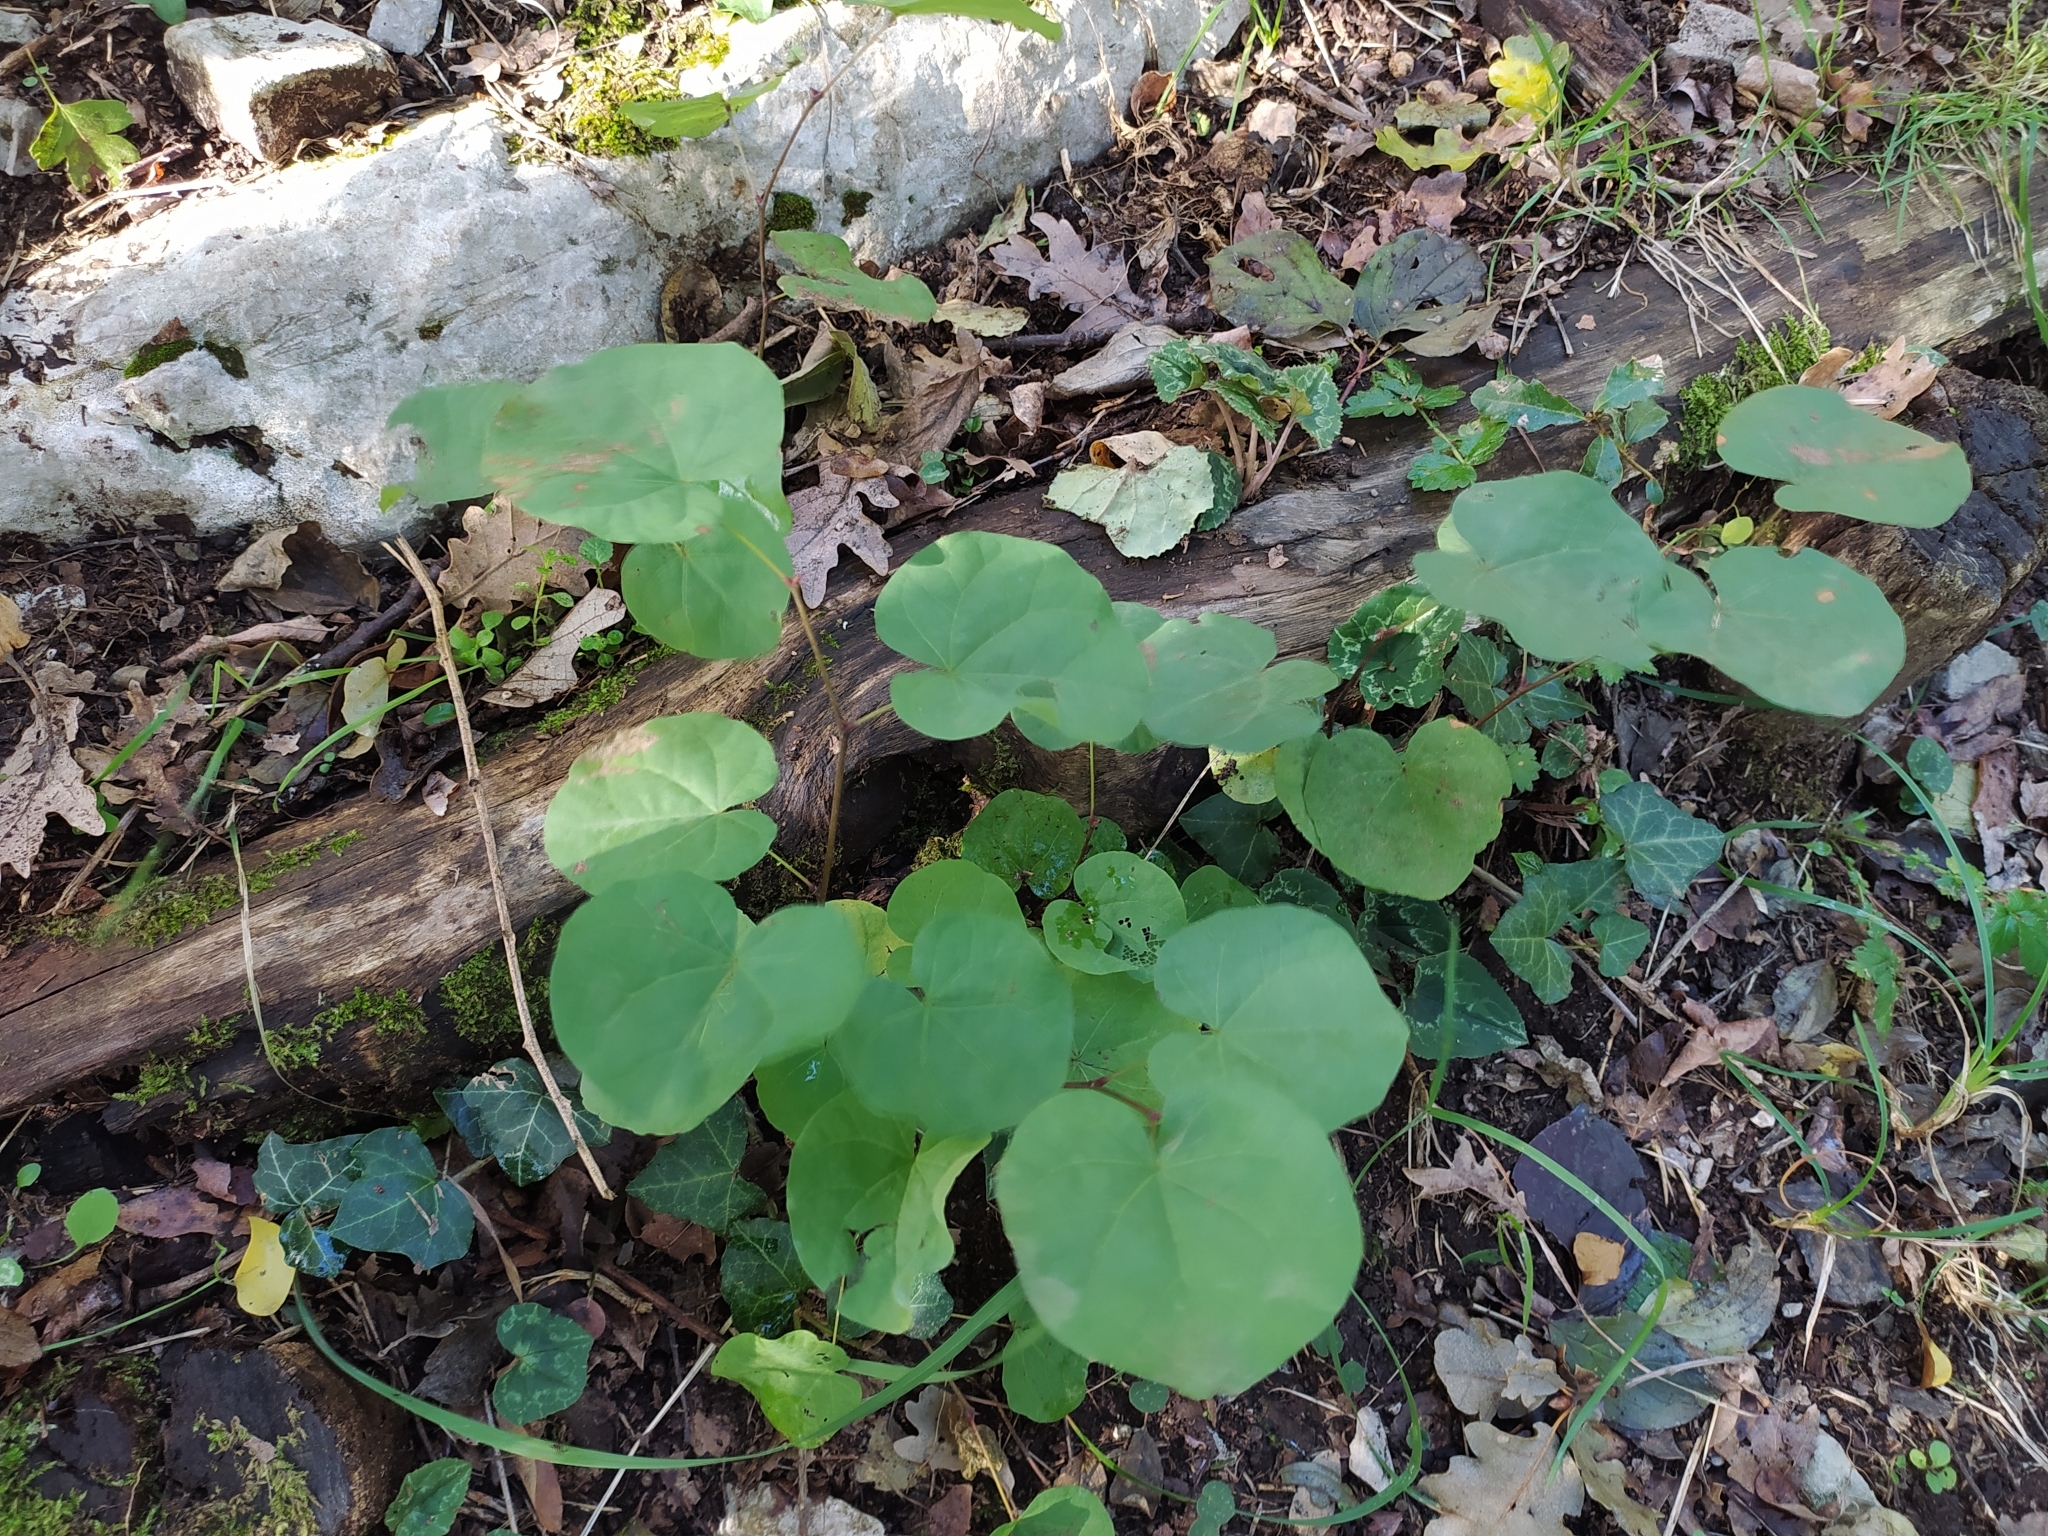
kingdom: Plantae
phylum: Tracheophyta
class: Magnoliopsida
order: Fabales
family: Fabaceae
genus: Cercis
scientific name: Cercis siliquastrum
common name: Judas tree
